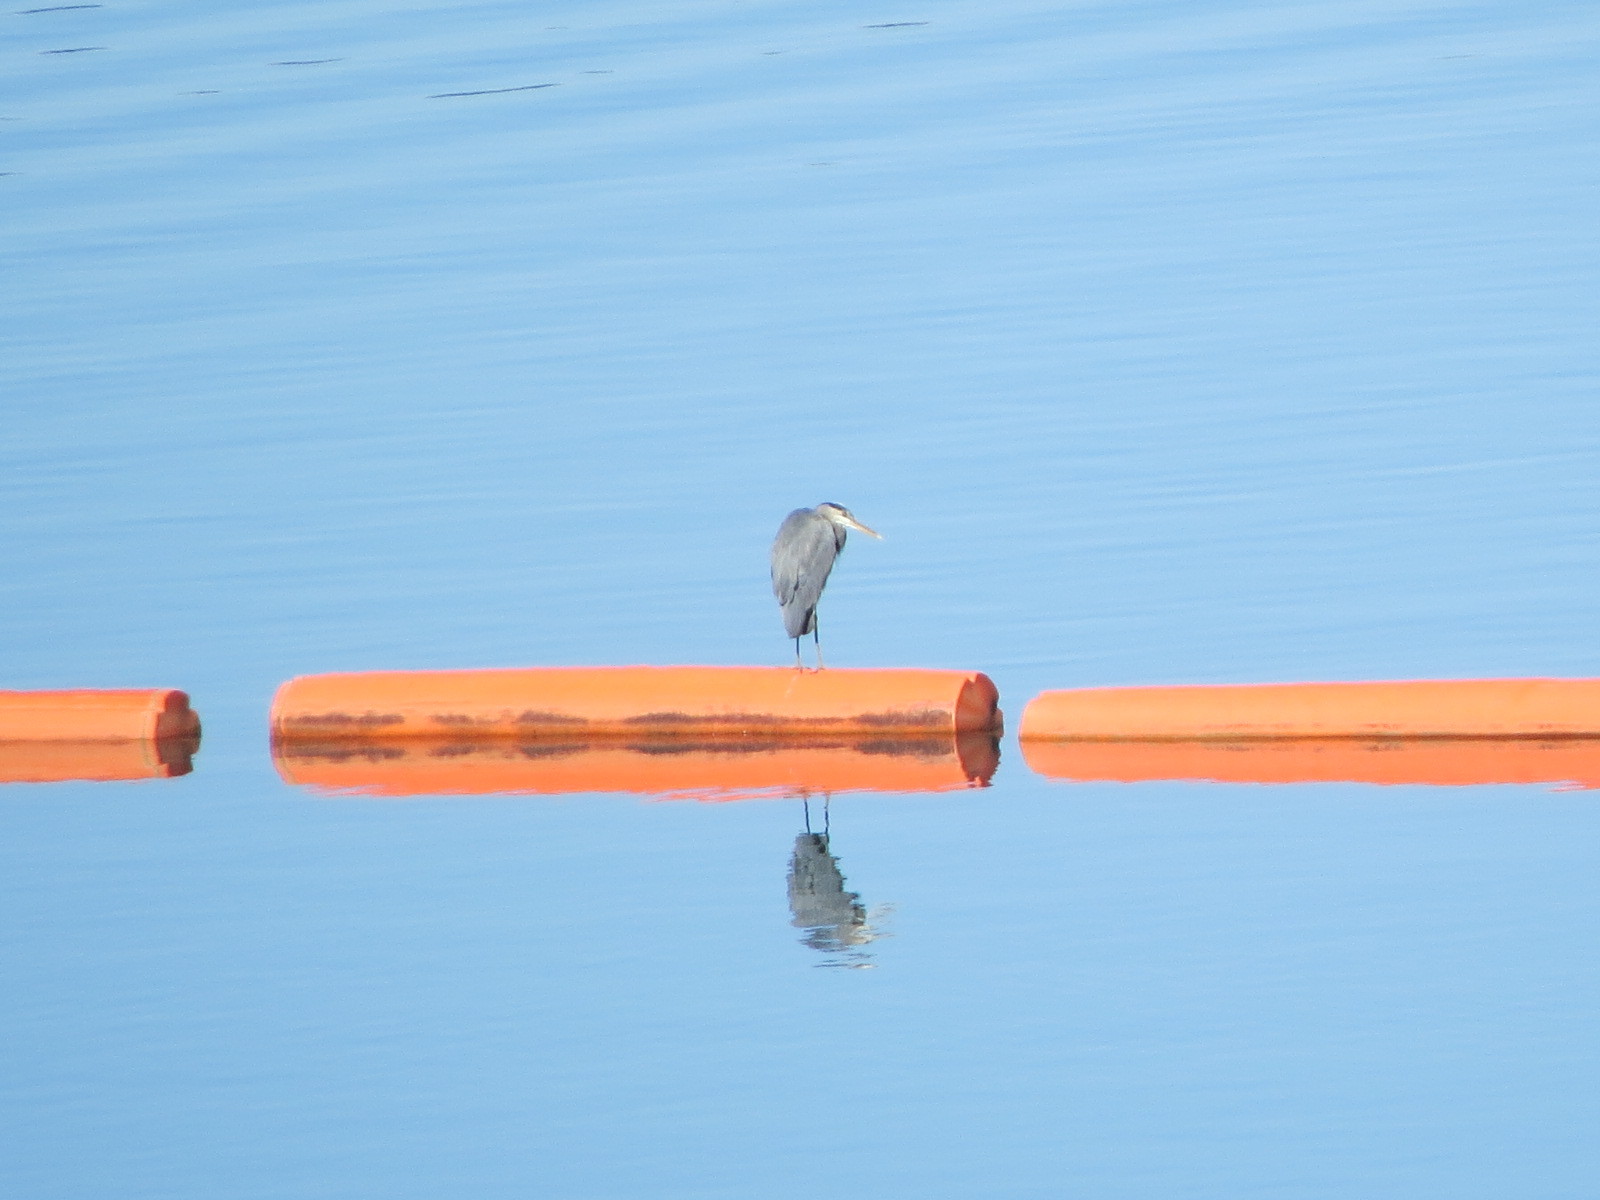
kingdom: Animalia
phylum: Chordata
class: Aves
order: Pelecaniformes
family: Ardeidae
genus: Ardea
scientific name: Ardea herodias
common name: Great blue heron
